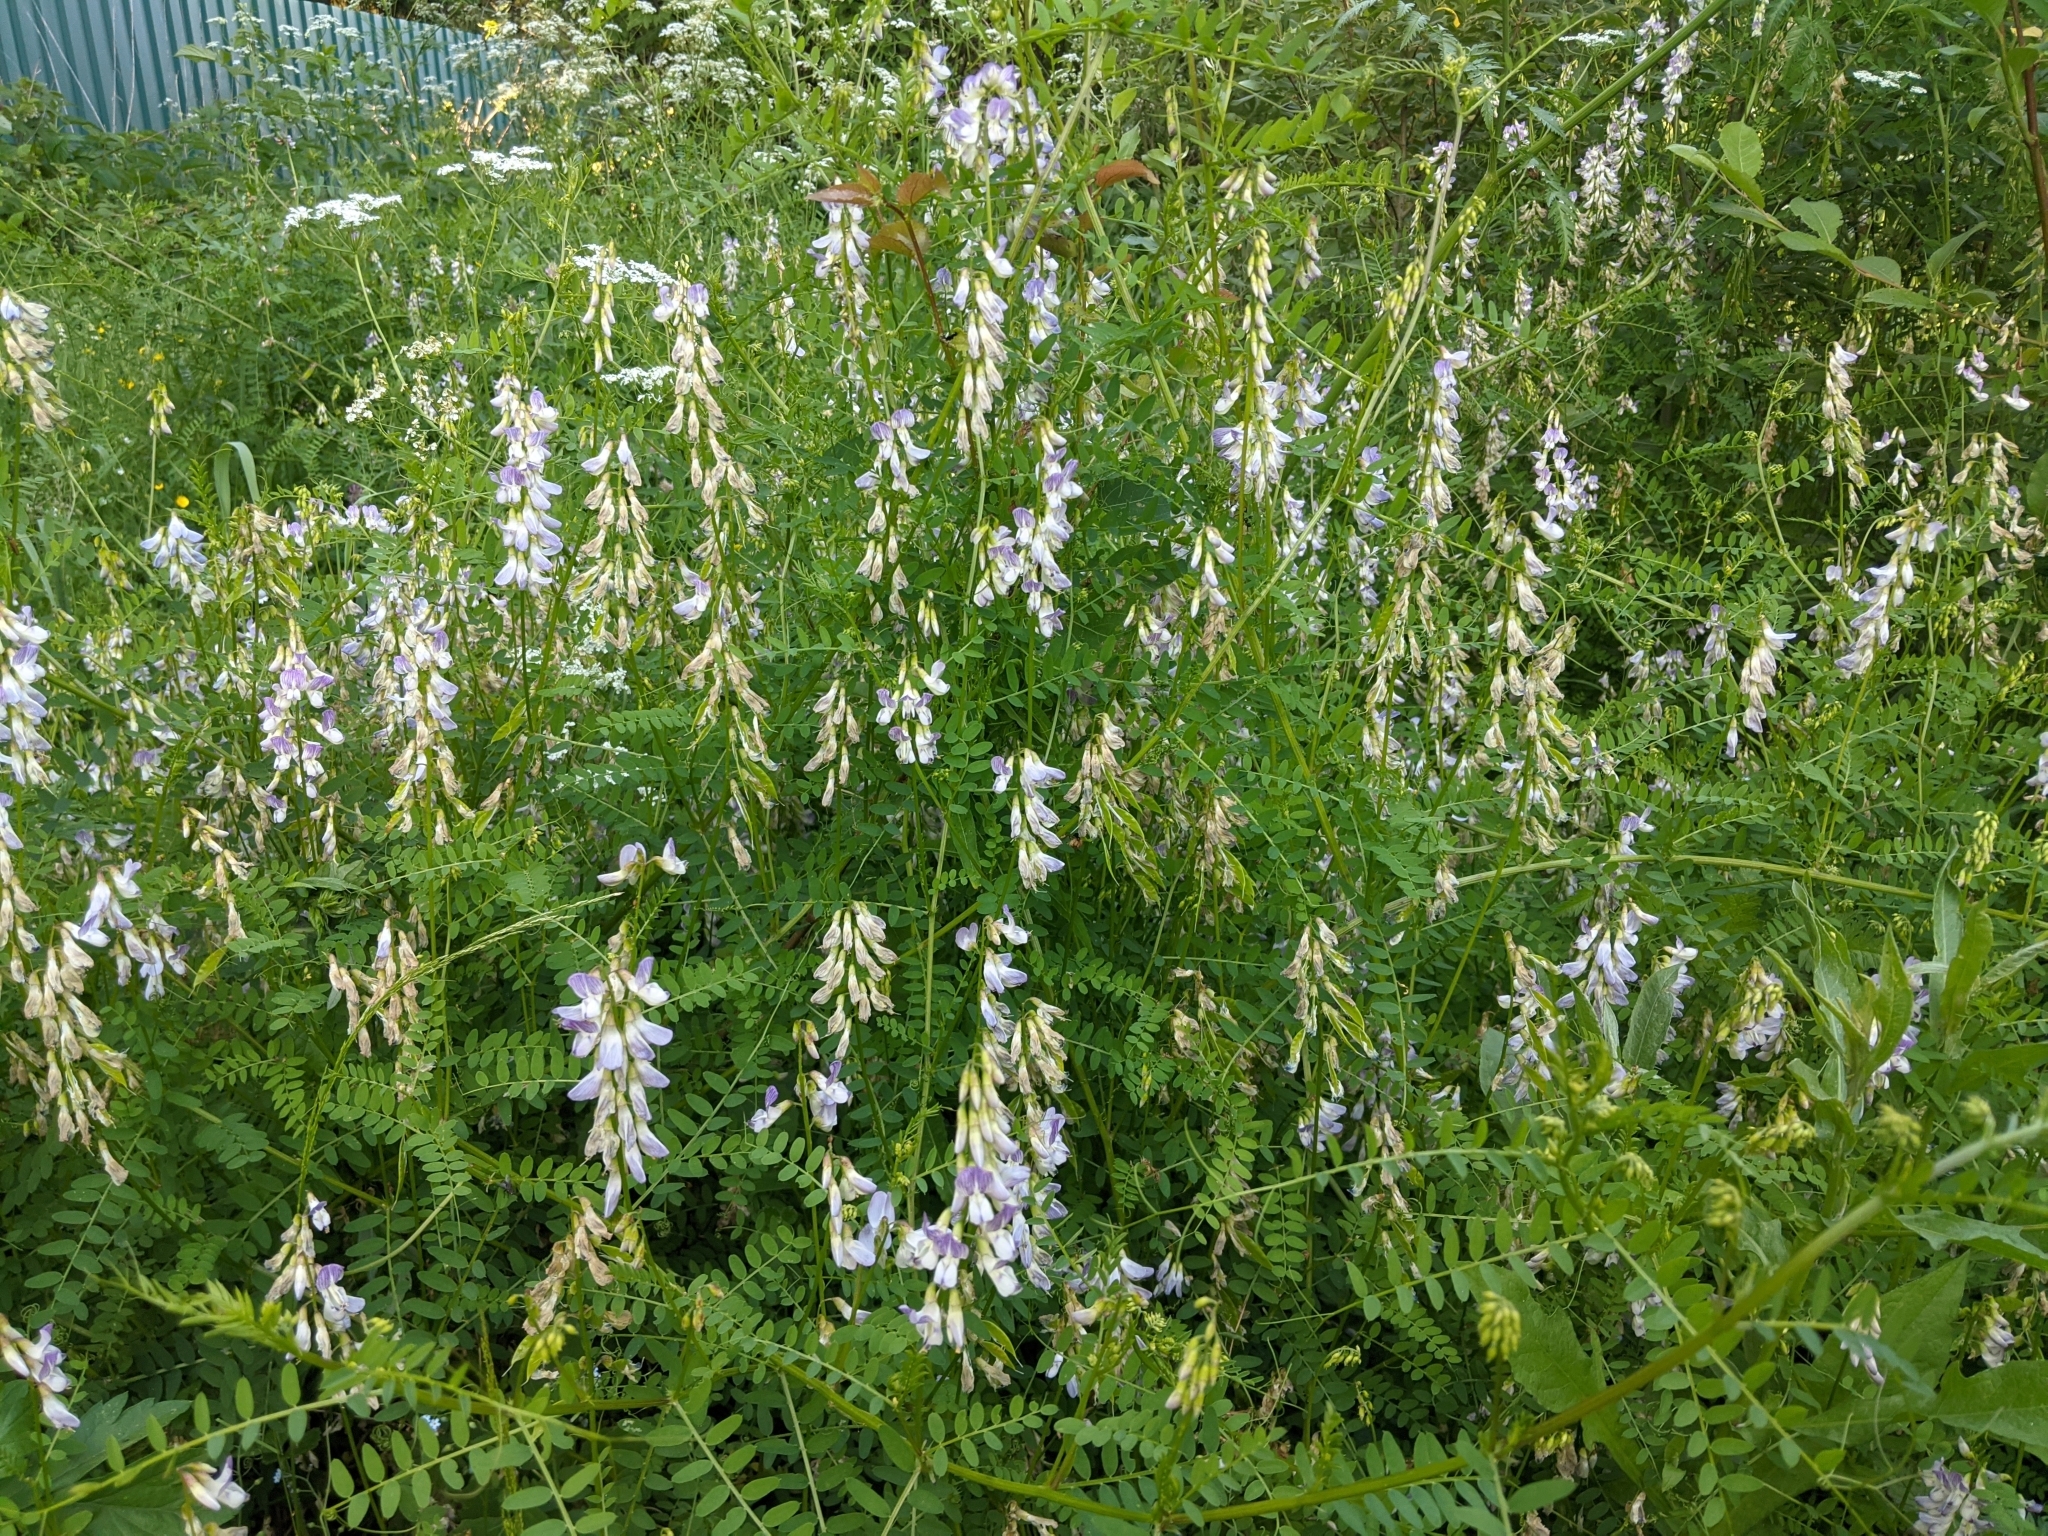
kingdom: Plantae
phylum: Tracheophyta
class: Magnoliopsida
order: Fabales
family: Fabaceae
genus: Vicia
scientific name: Vicia sylvatica
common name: Wood vetch
